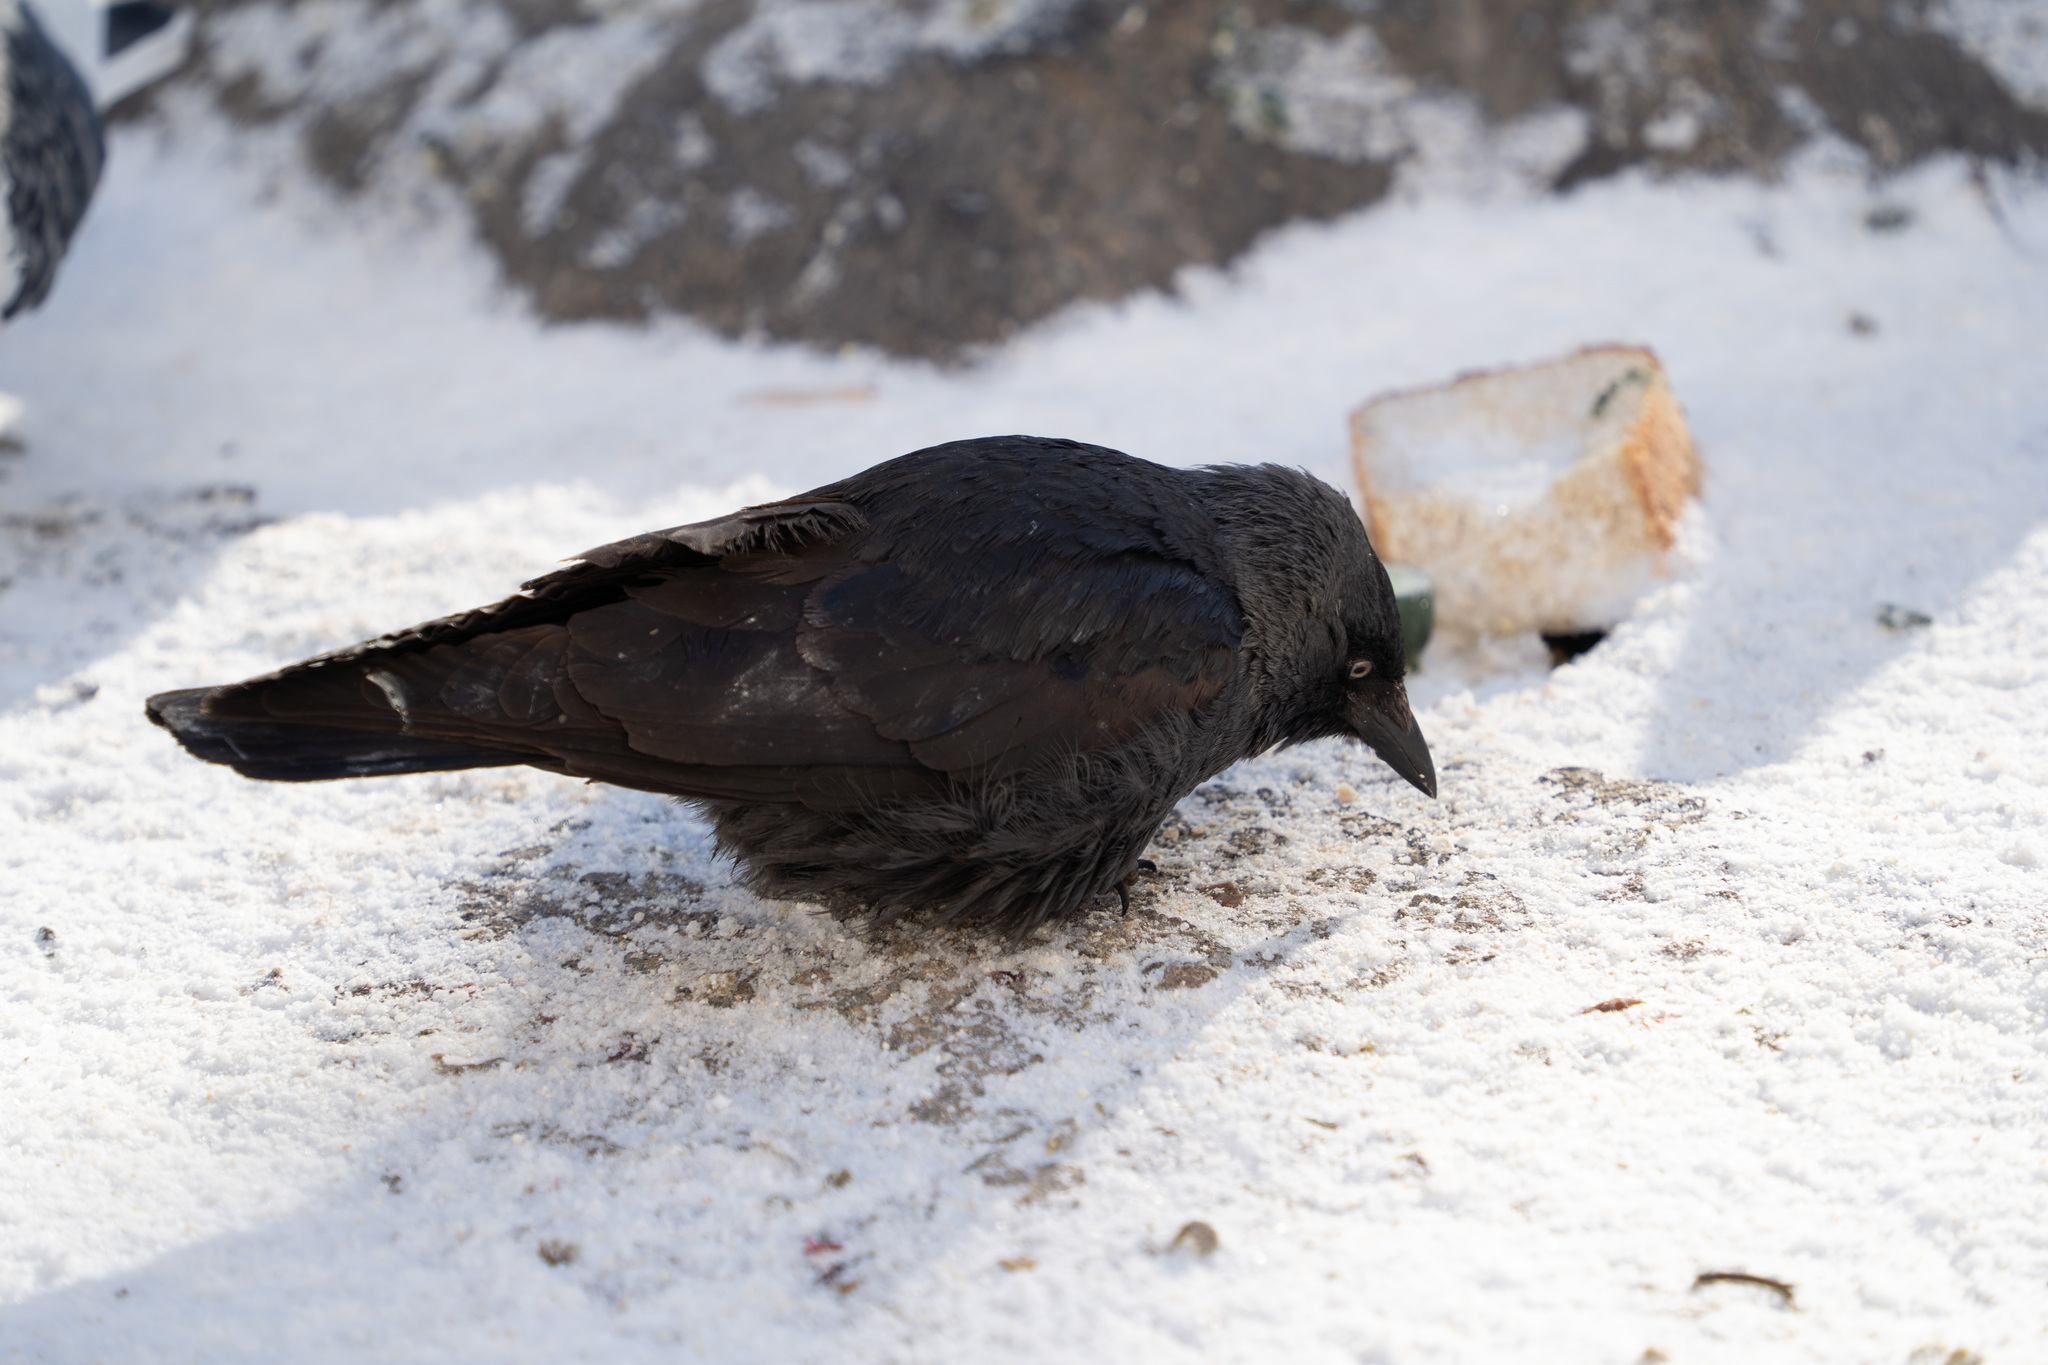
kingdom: Animalia
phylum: Chordata
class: Aves
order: Passeriformes
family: Corvidae
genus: Coloeus
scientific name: Coloeus monedula
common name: Western jackdaw
